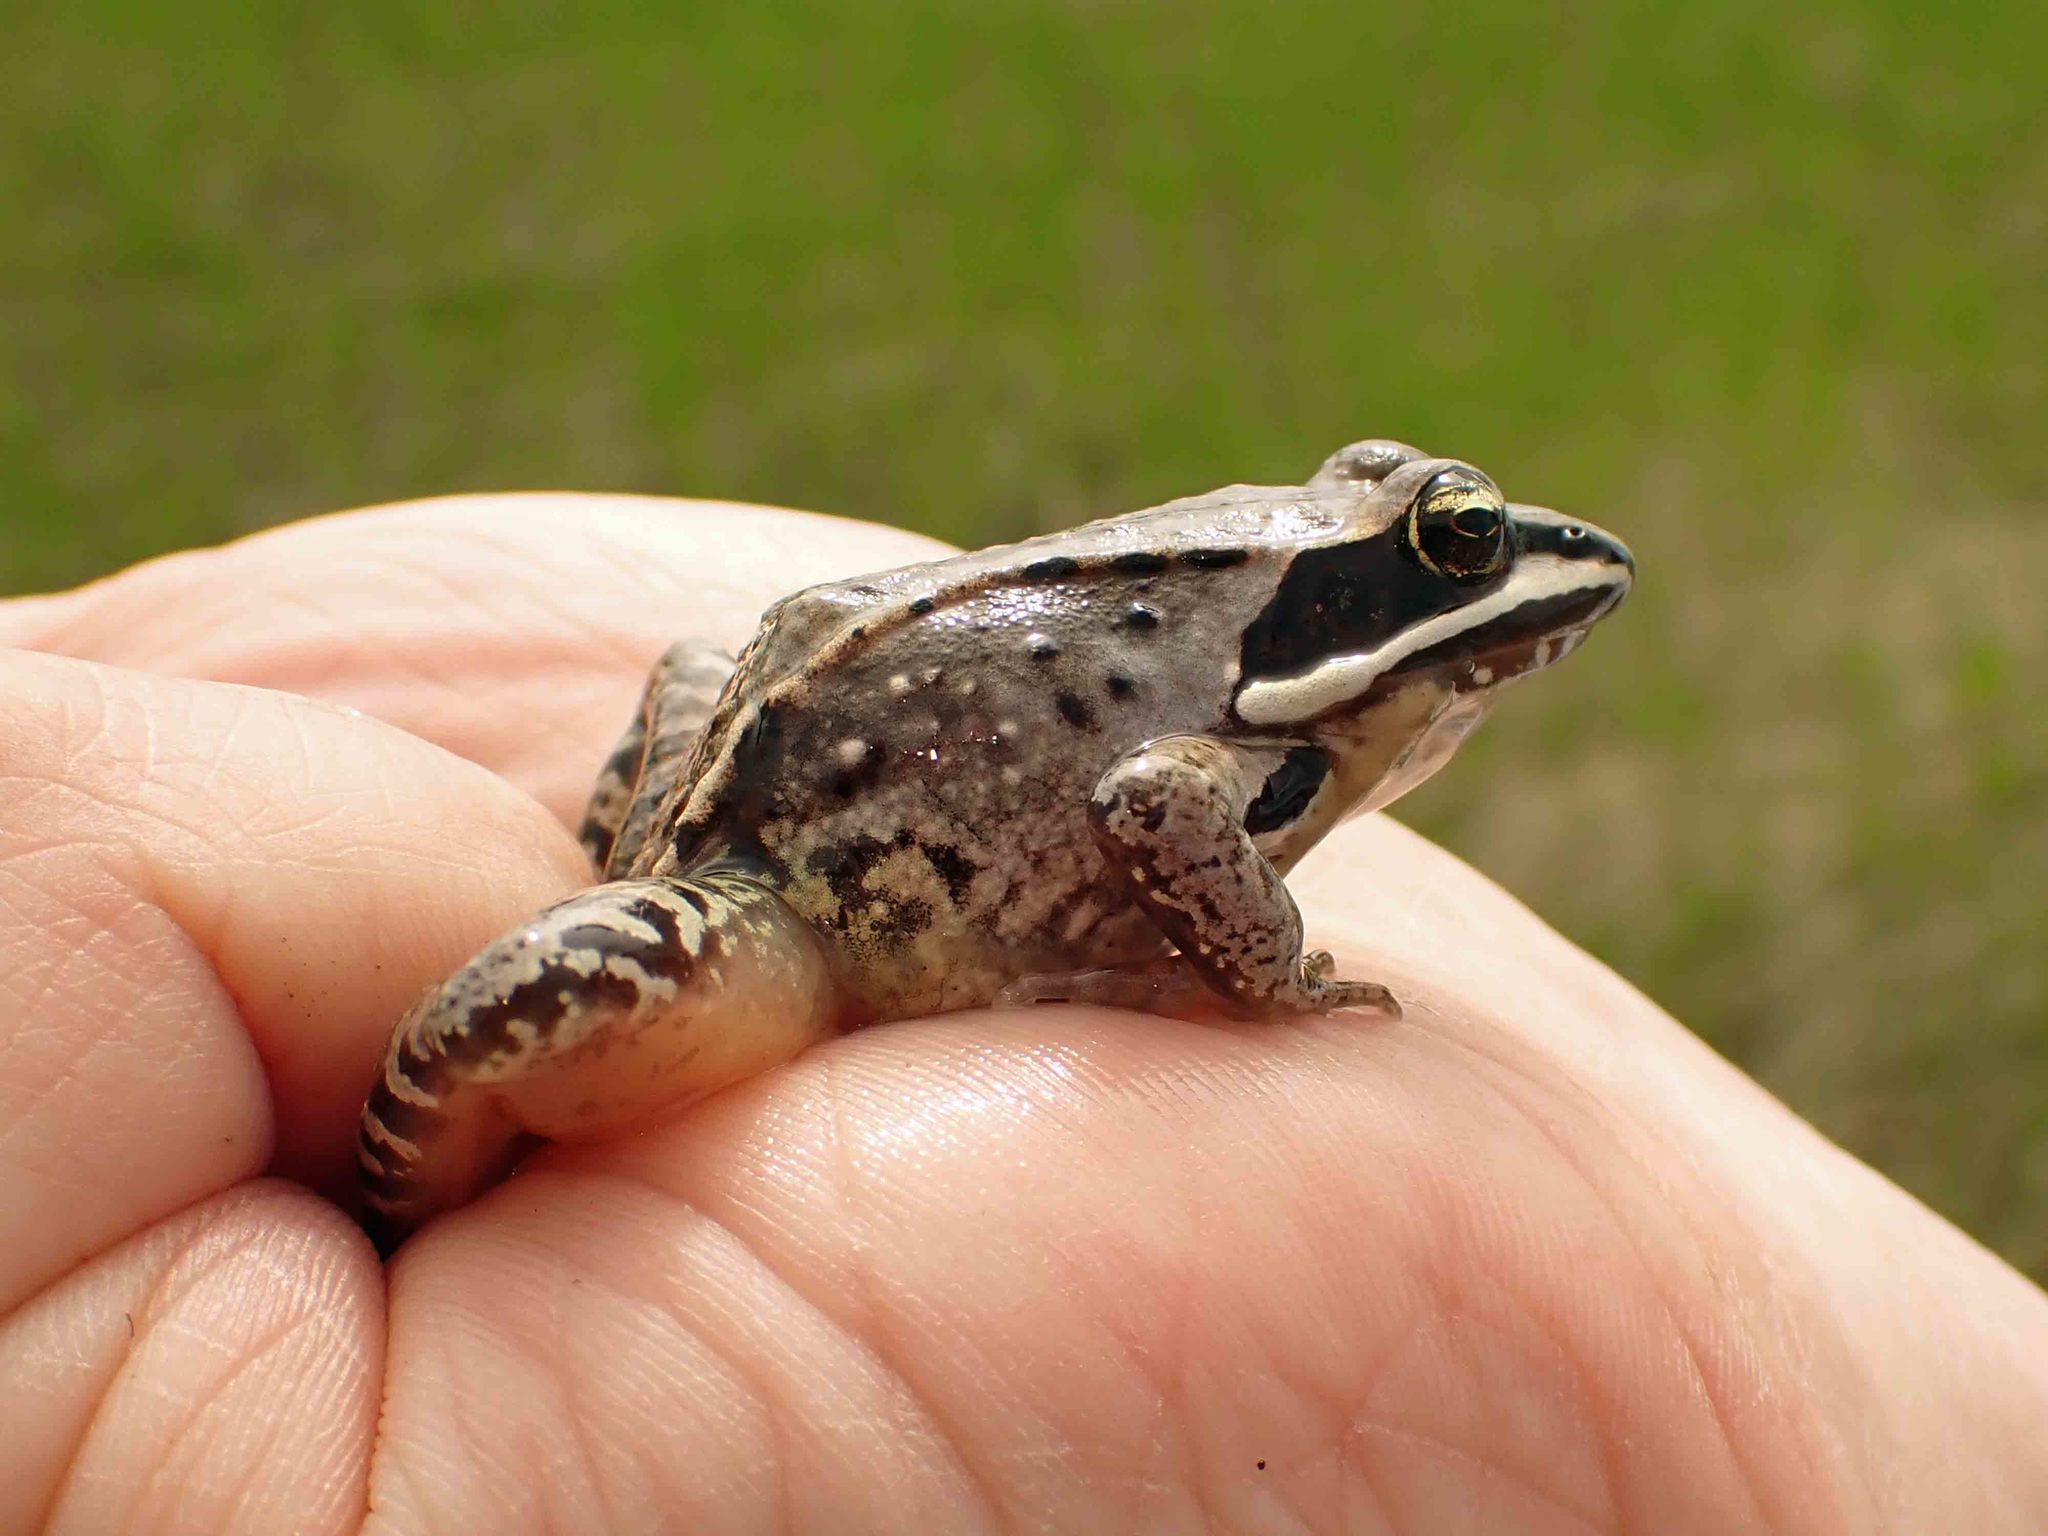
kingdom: Animalia
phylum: Chordata
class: Amphibia
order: Anura
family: Ranidae
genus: Lithobates
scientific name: Lithobates sylvaticus
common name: Wood frog
